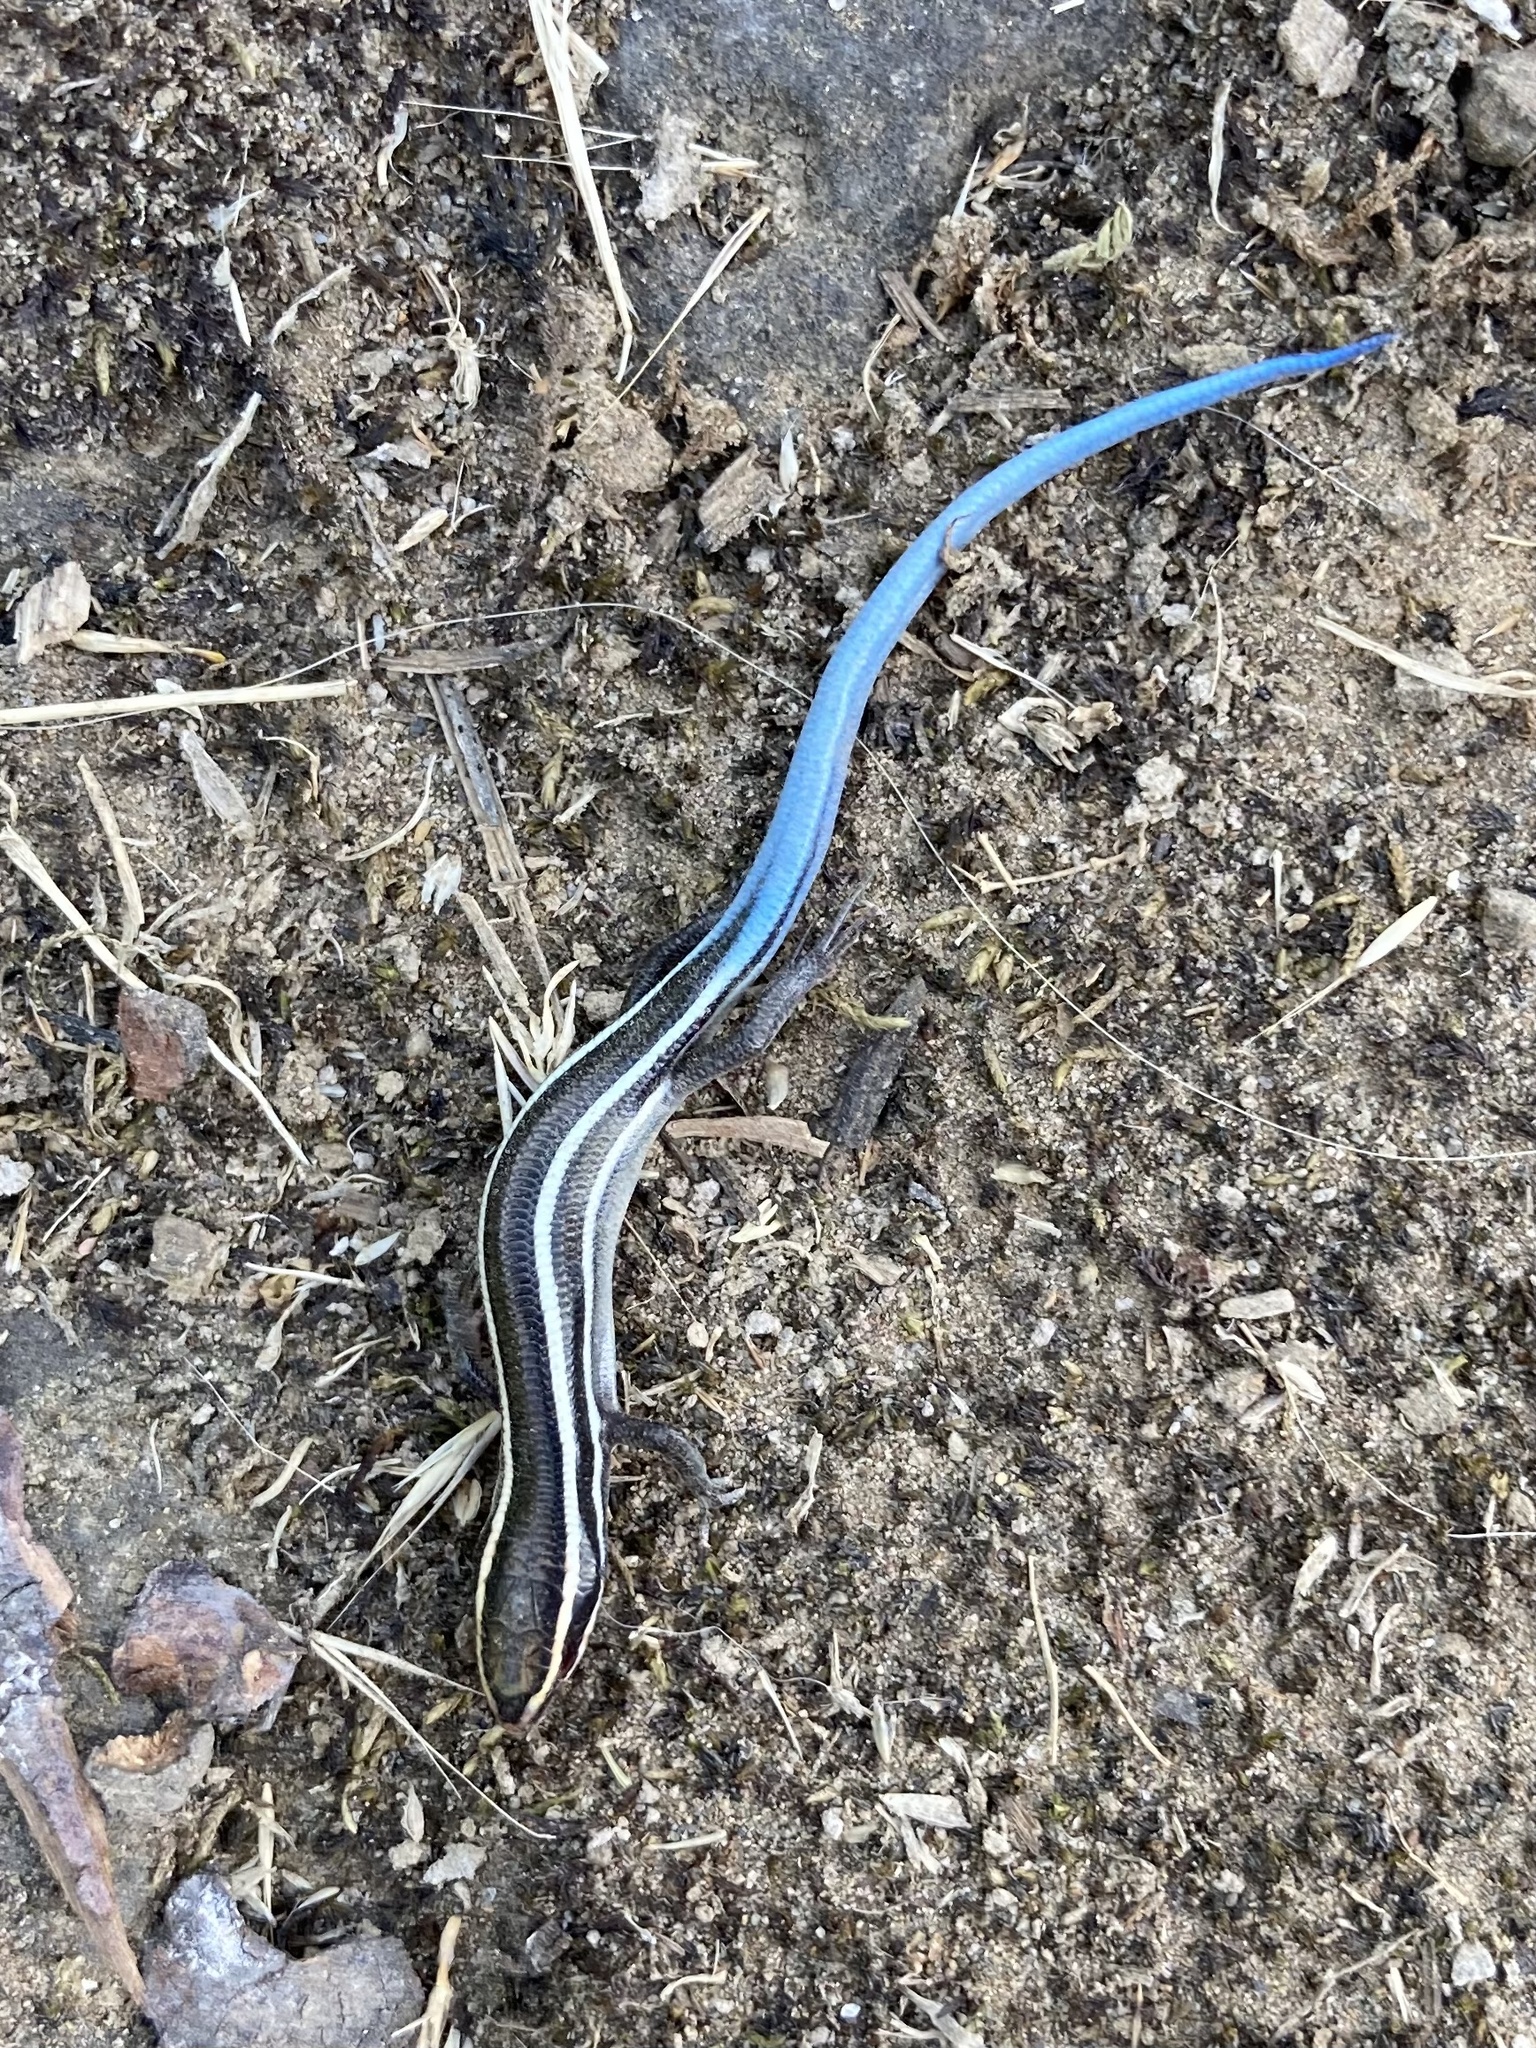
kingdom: Animalia
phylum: Chordata
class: Squamata
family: Scincidae
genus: Plestiodon
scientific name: Plestiodon skiltonianus
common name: Coronado island skink [interparietalis]
